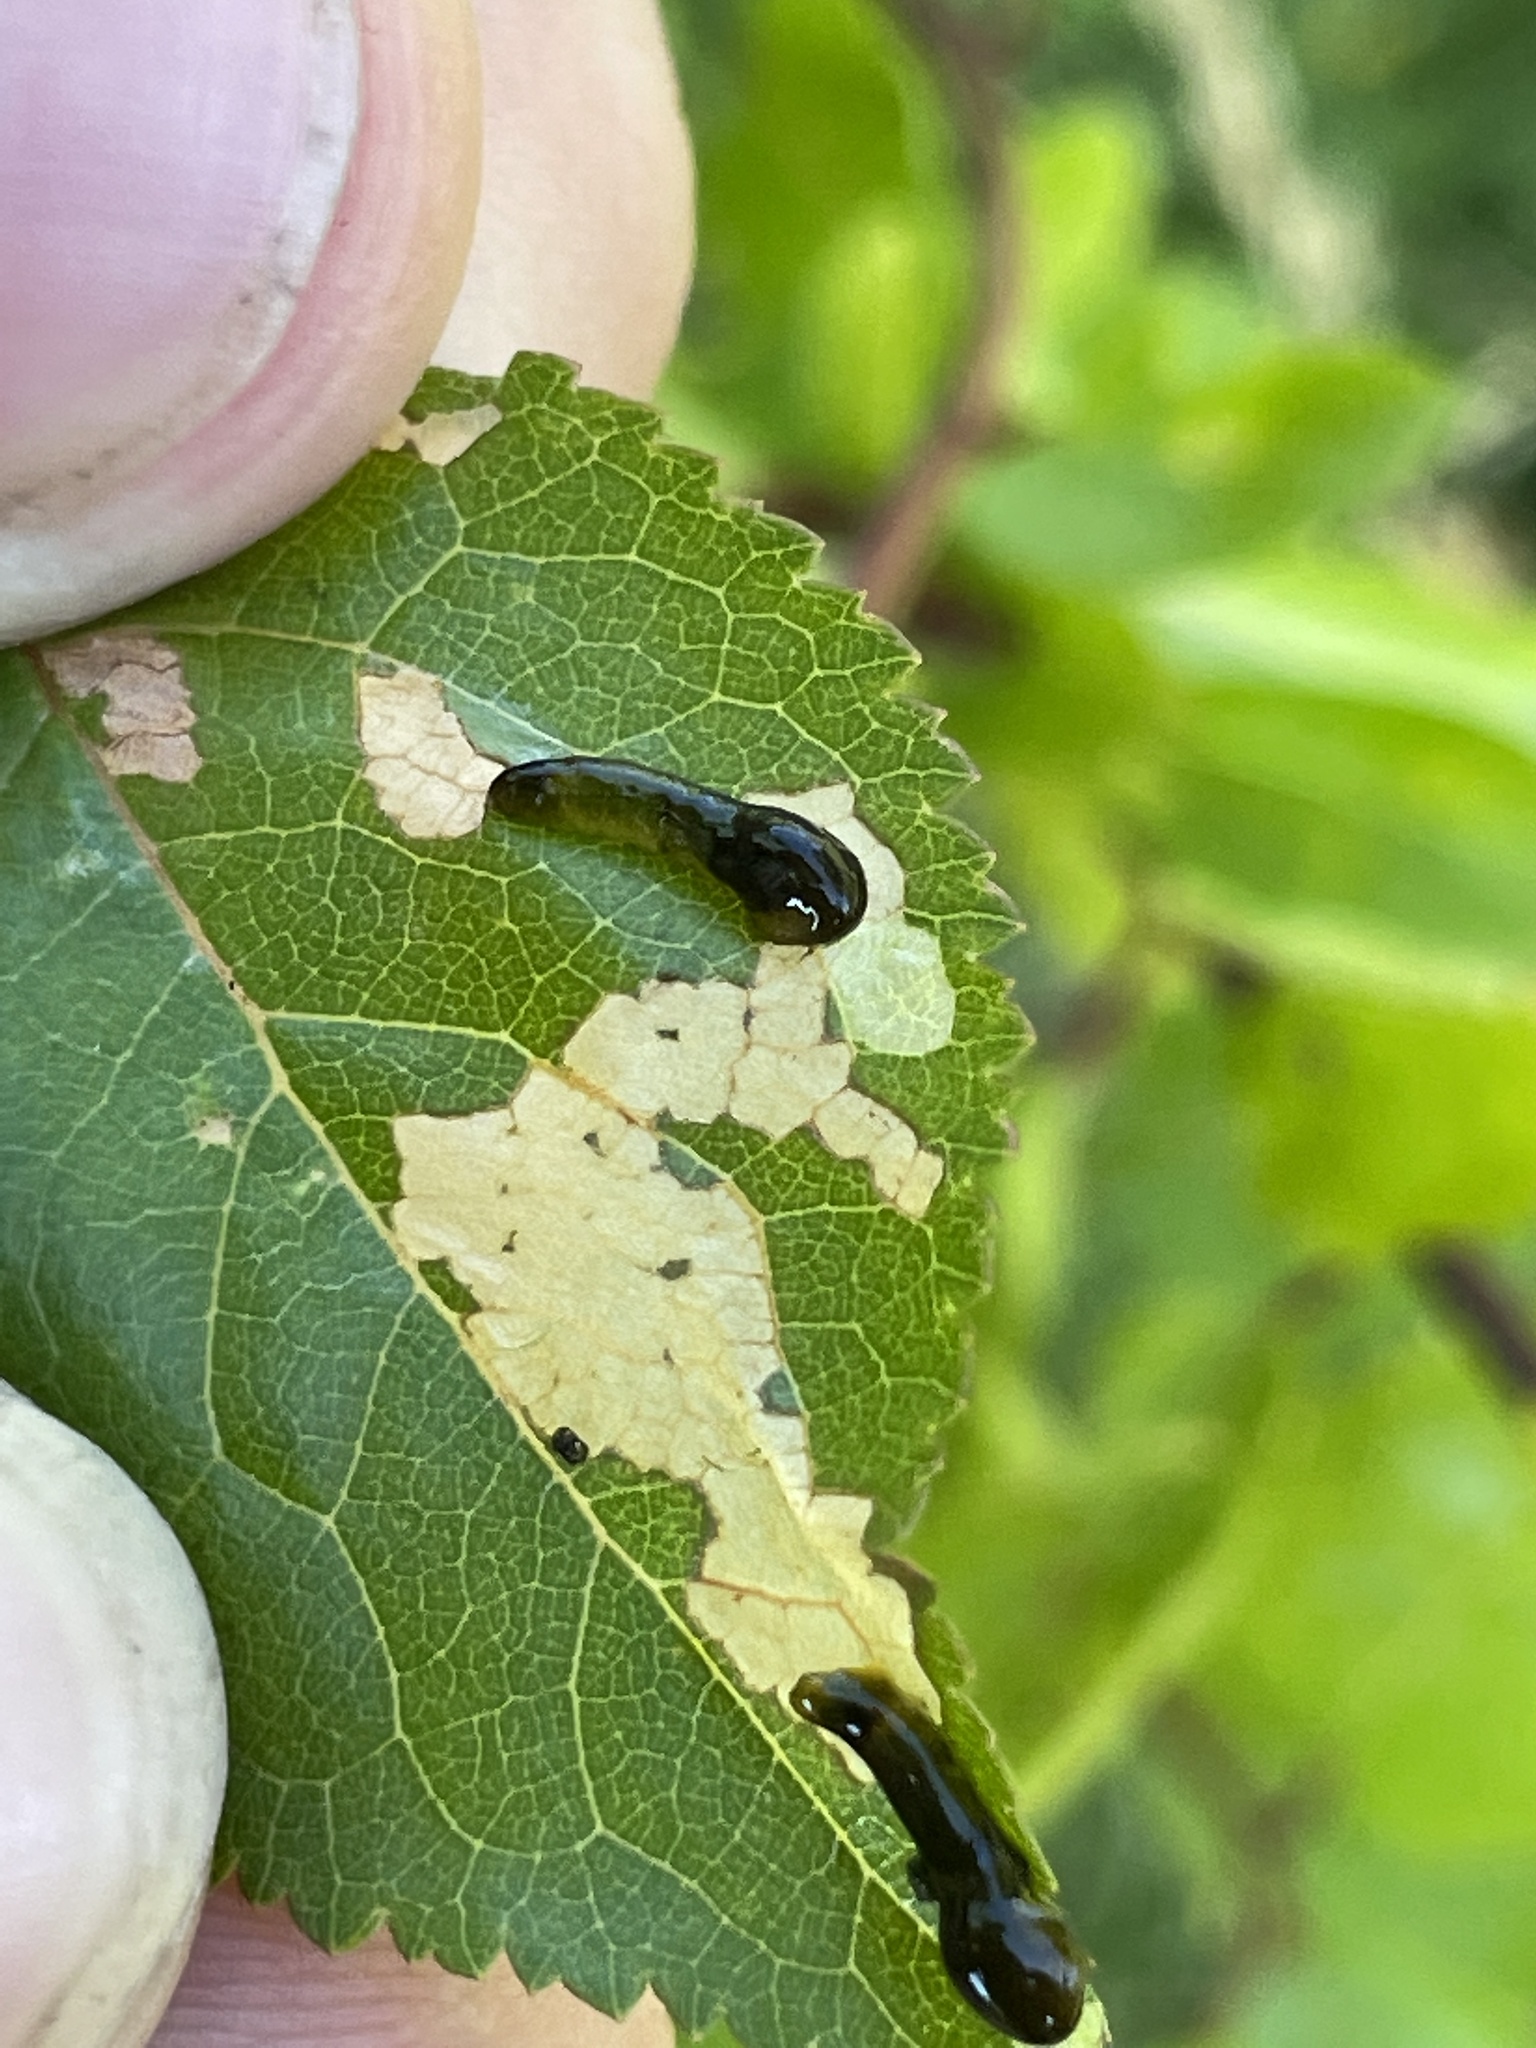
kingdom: Animalia
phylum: Arthropoda
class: Insecta
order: Hymenoptera
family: Tenthredinidae
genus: Caliroa
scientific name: Caliroa cerasi
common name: Pear sawfly
